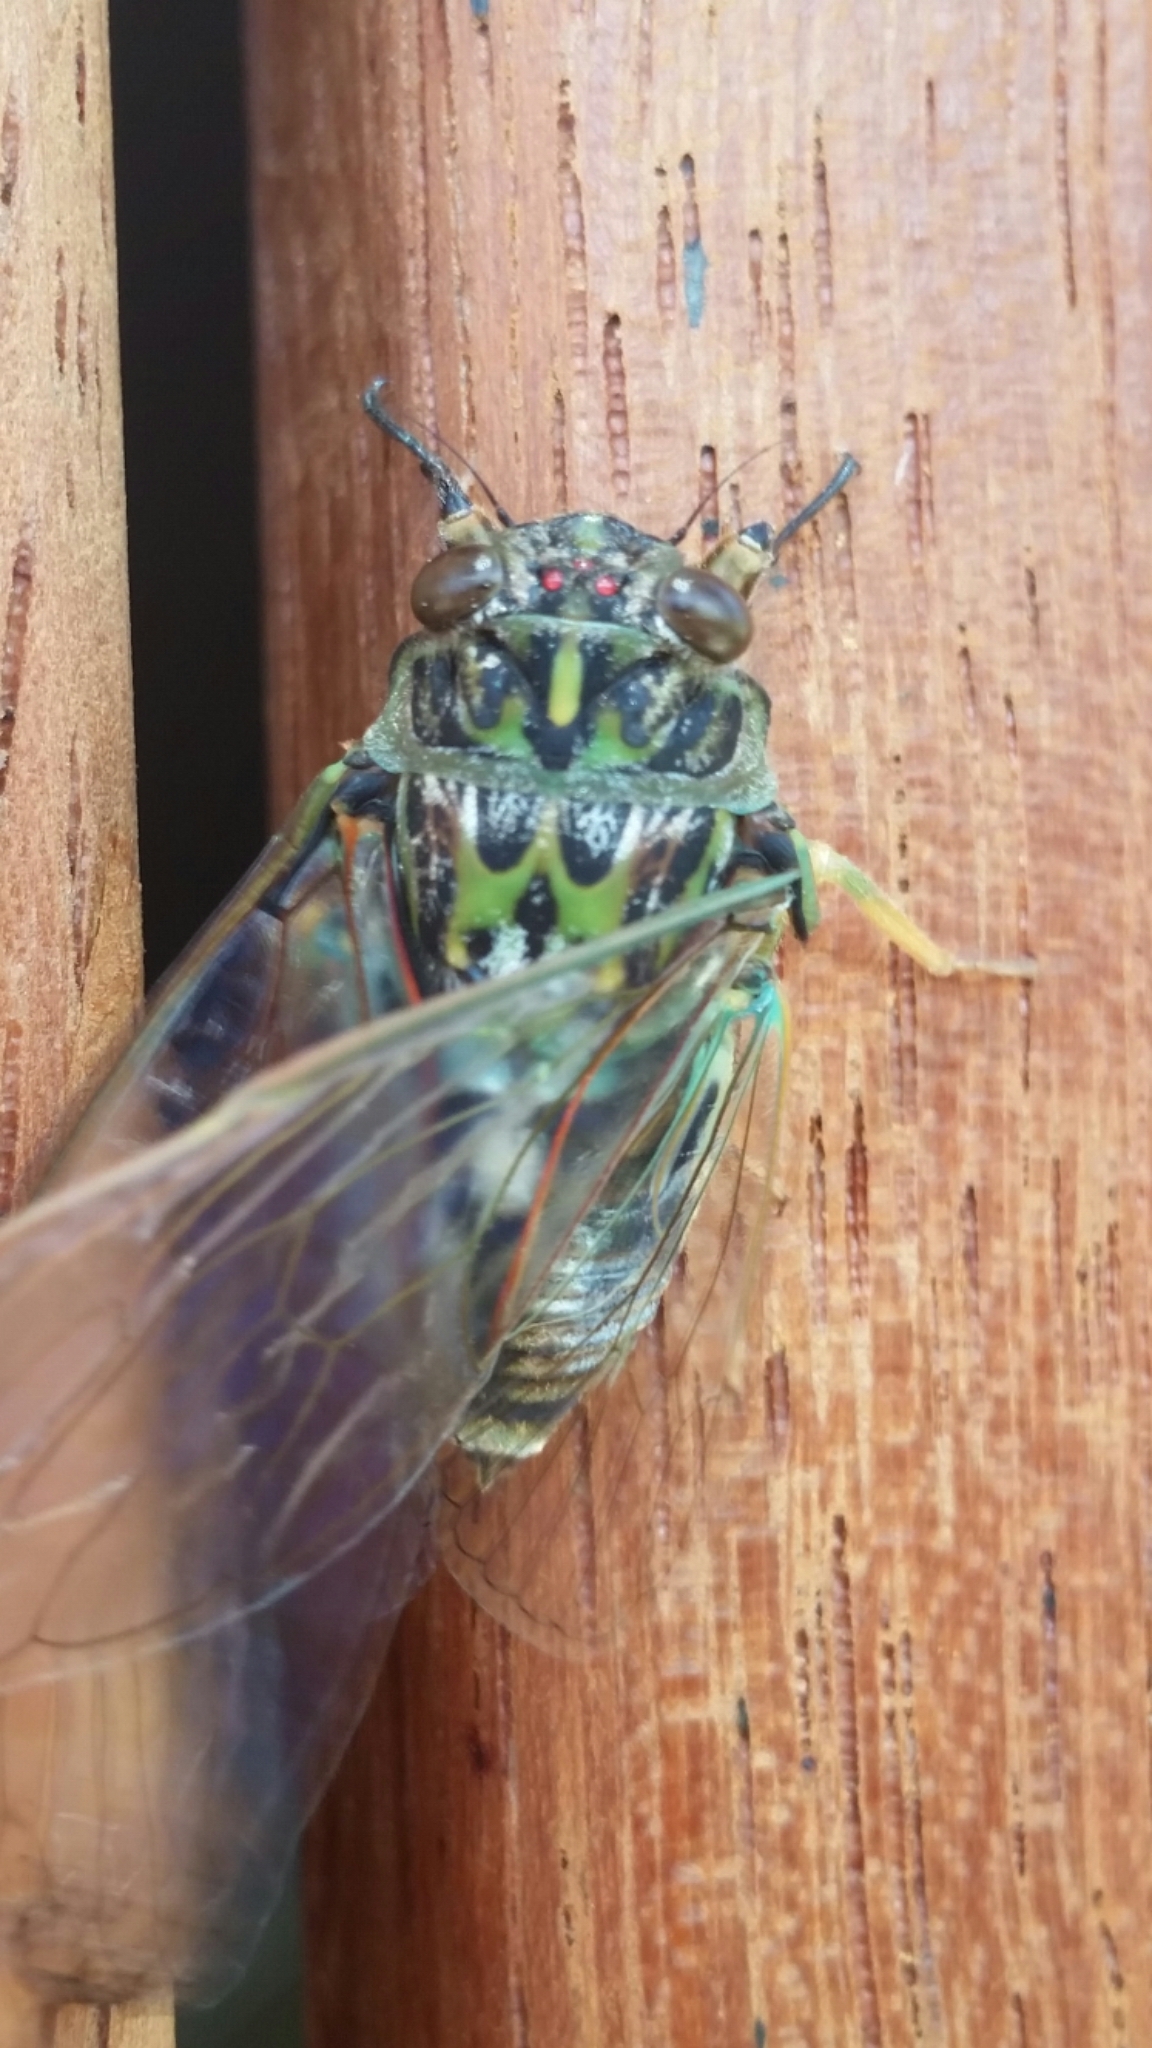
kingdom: Animalia
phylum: Arthropoda
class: Insecta
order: Hemiptera
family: Cicadidae
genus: Amphipsalta
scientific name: Amphipsalta zelandica
